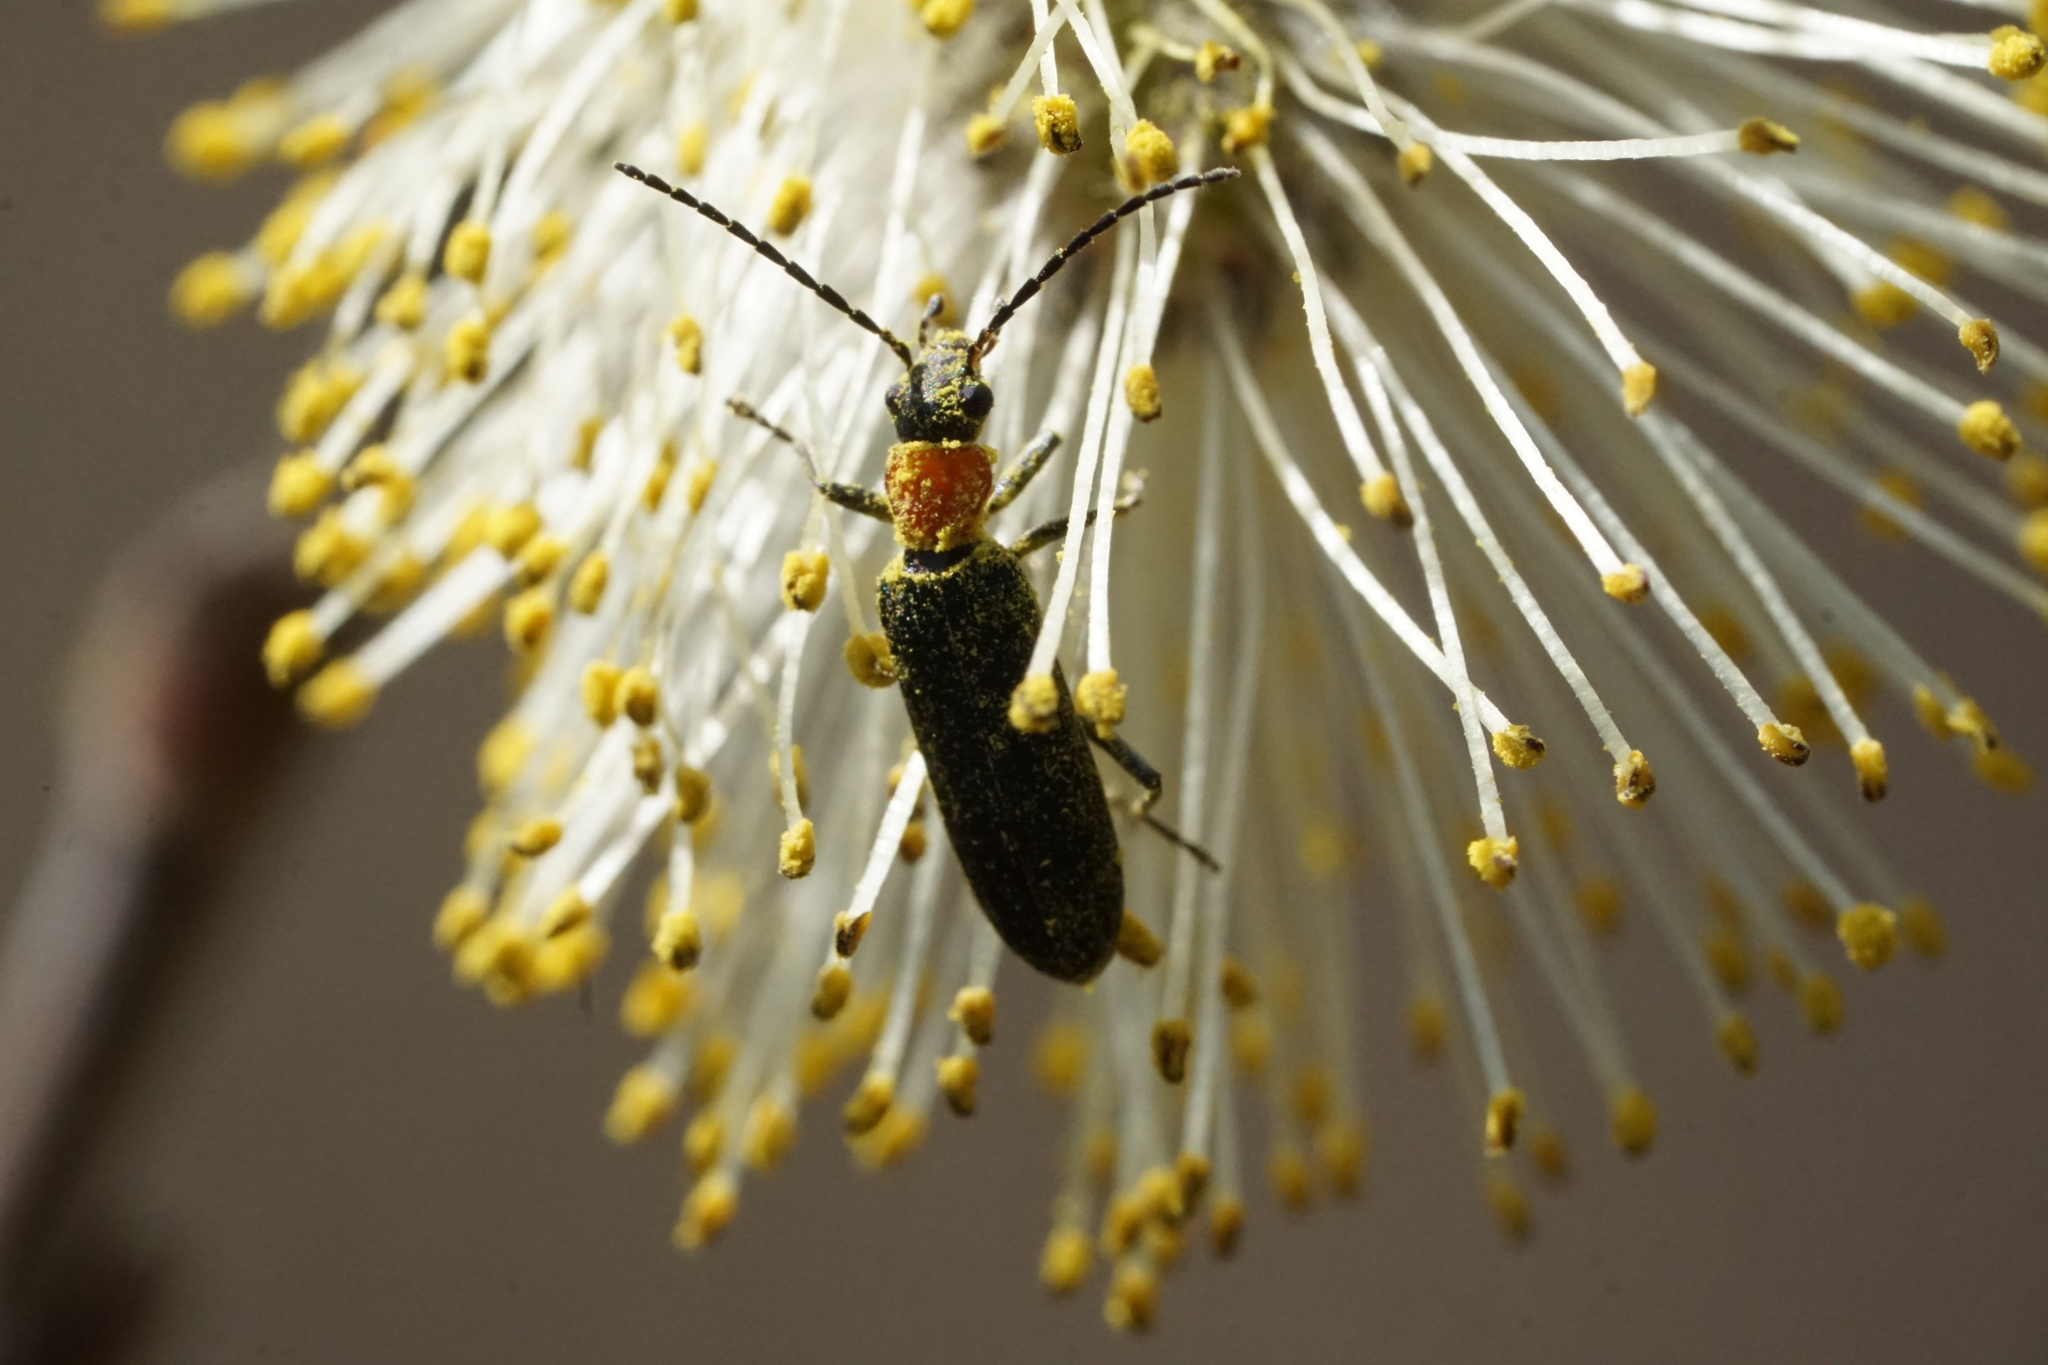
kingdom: Animalia
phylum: Arthropoda
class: Insecta
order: Coleoptera
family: Oedemeridae
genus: Ischnomera
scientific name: Ischnomera
